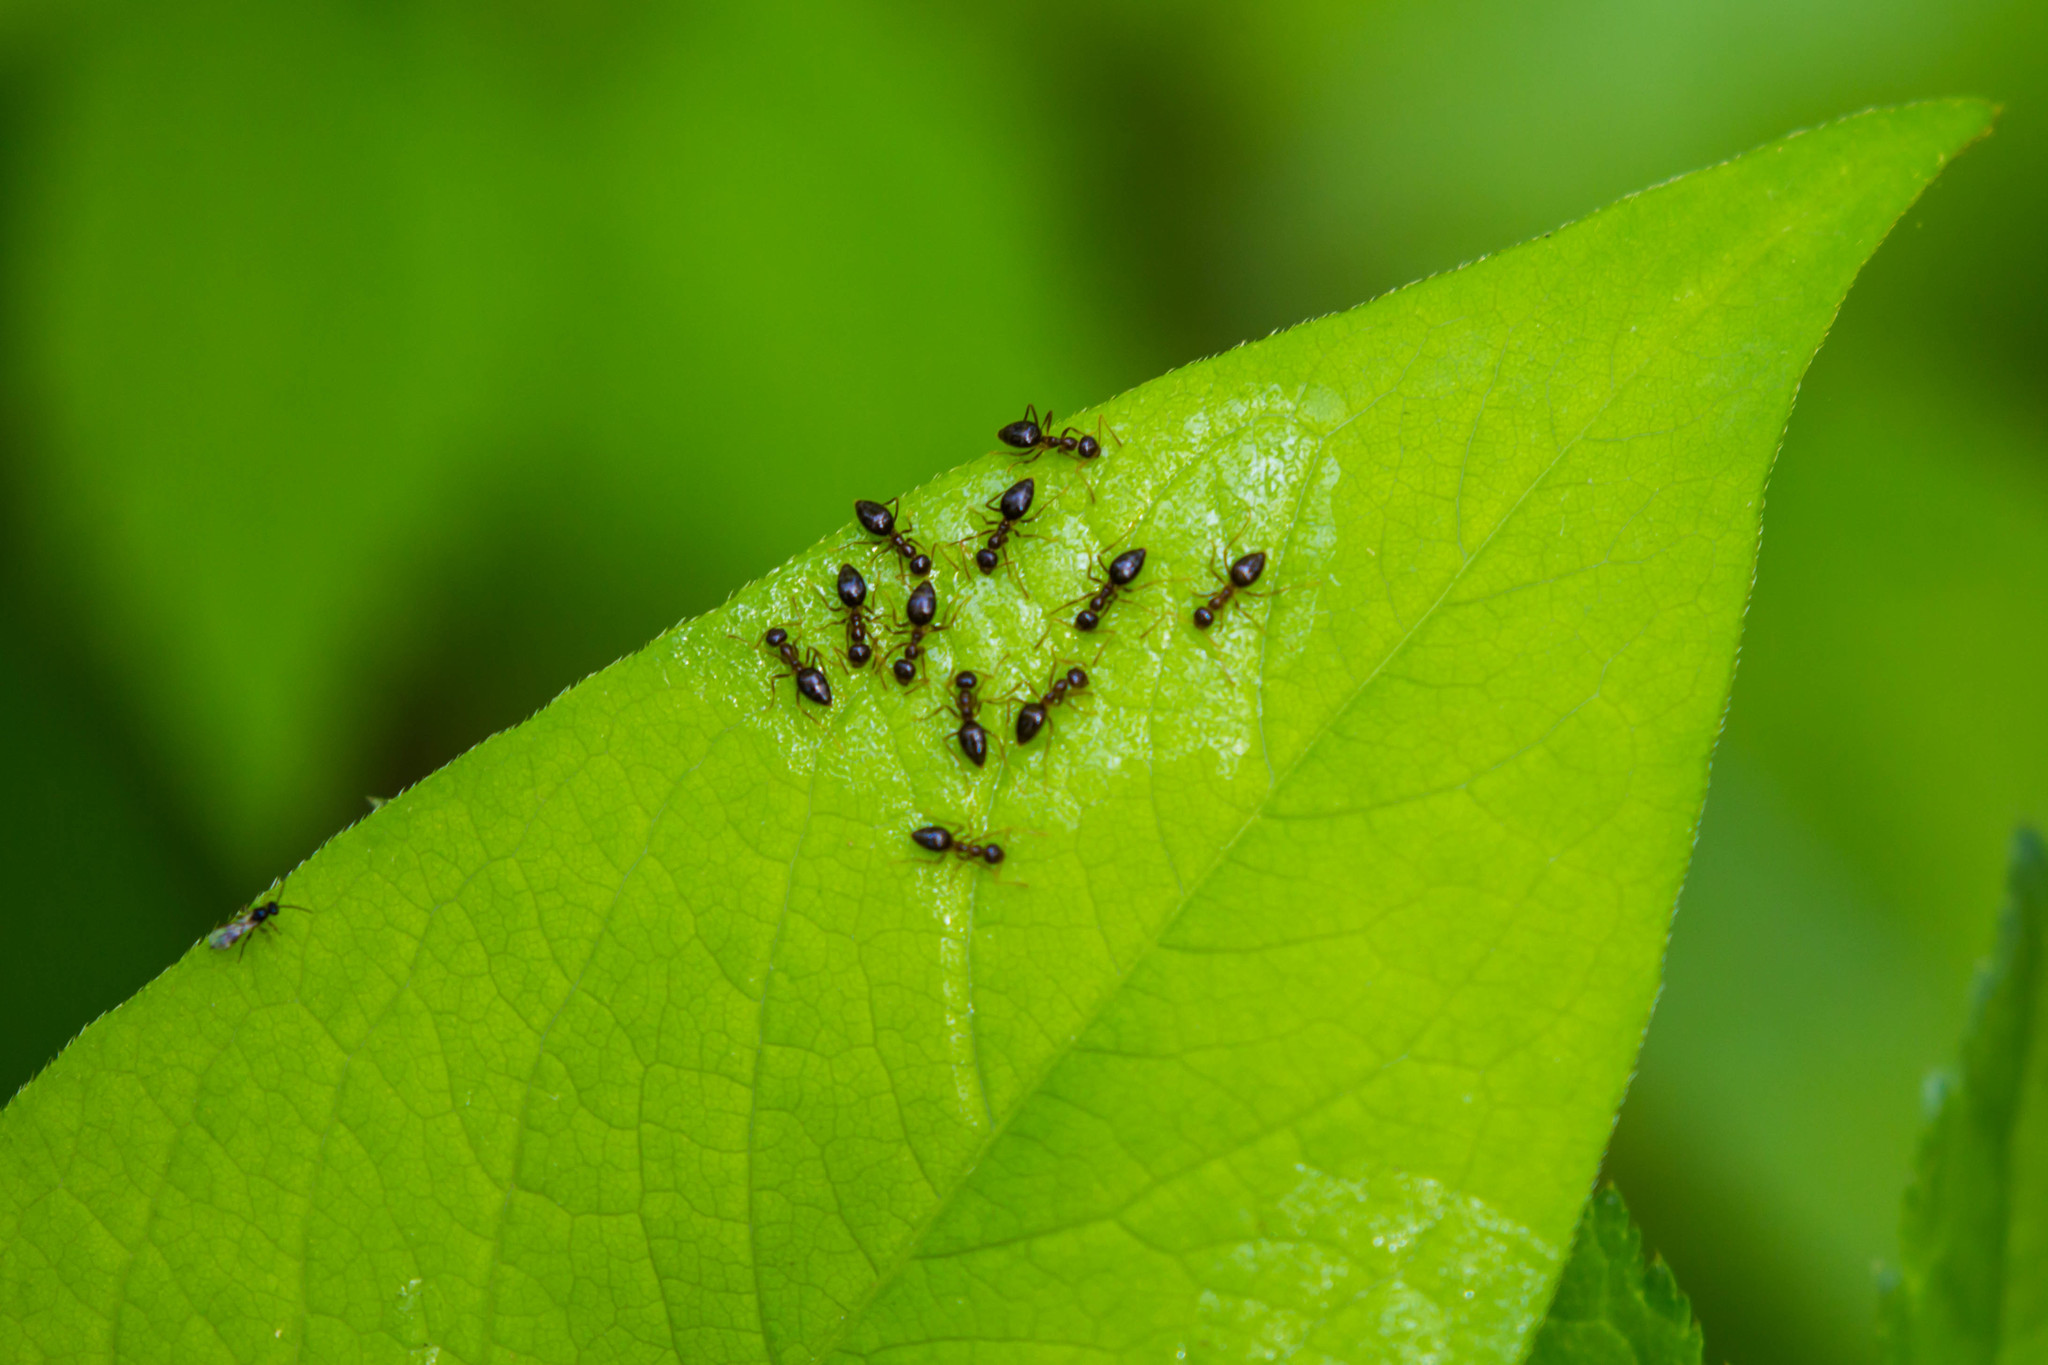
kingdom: Animalia
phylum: Arthropoda
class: Insecta
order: Hymenoptera
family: Formicidae
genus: Prenolepis
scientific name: Prenolepis imparis
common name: Small honey ant
